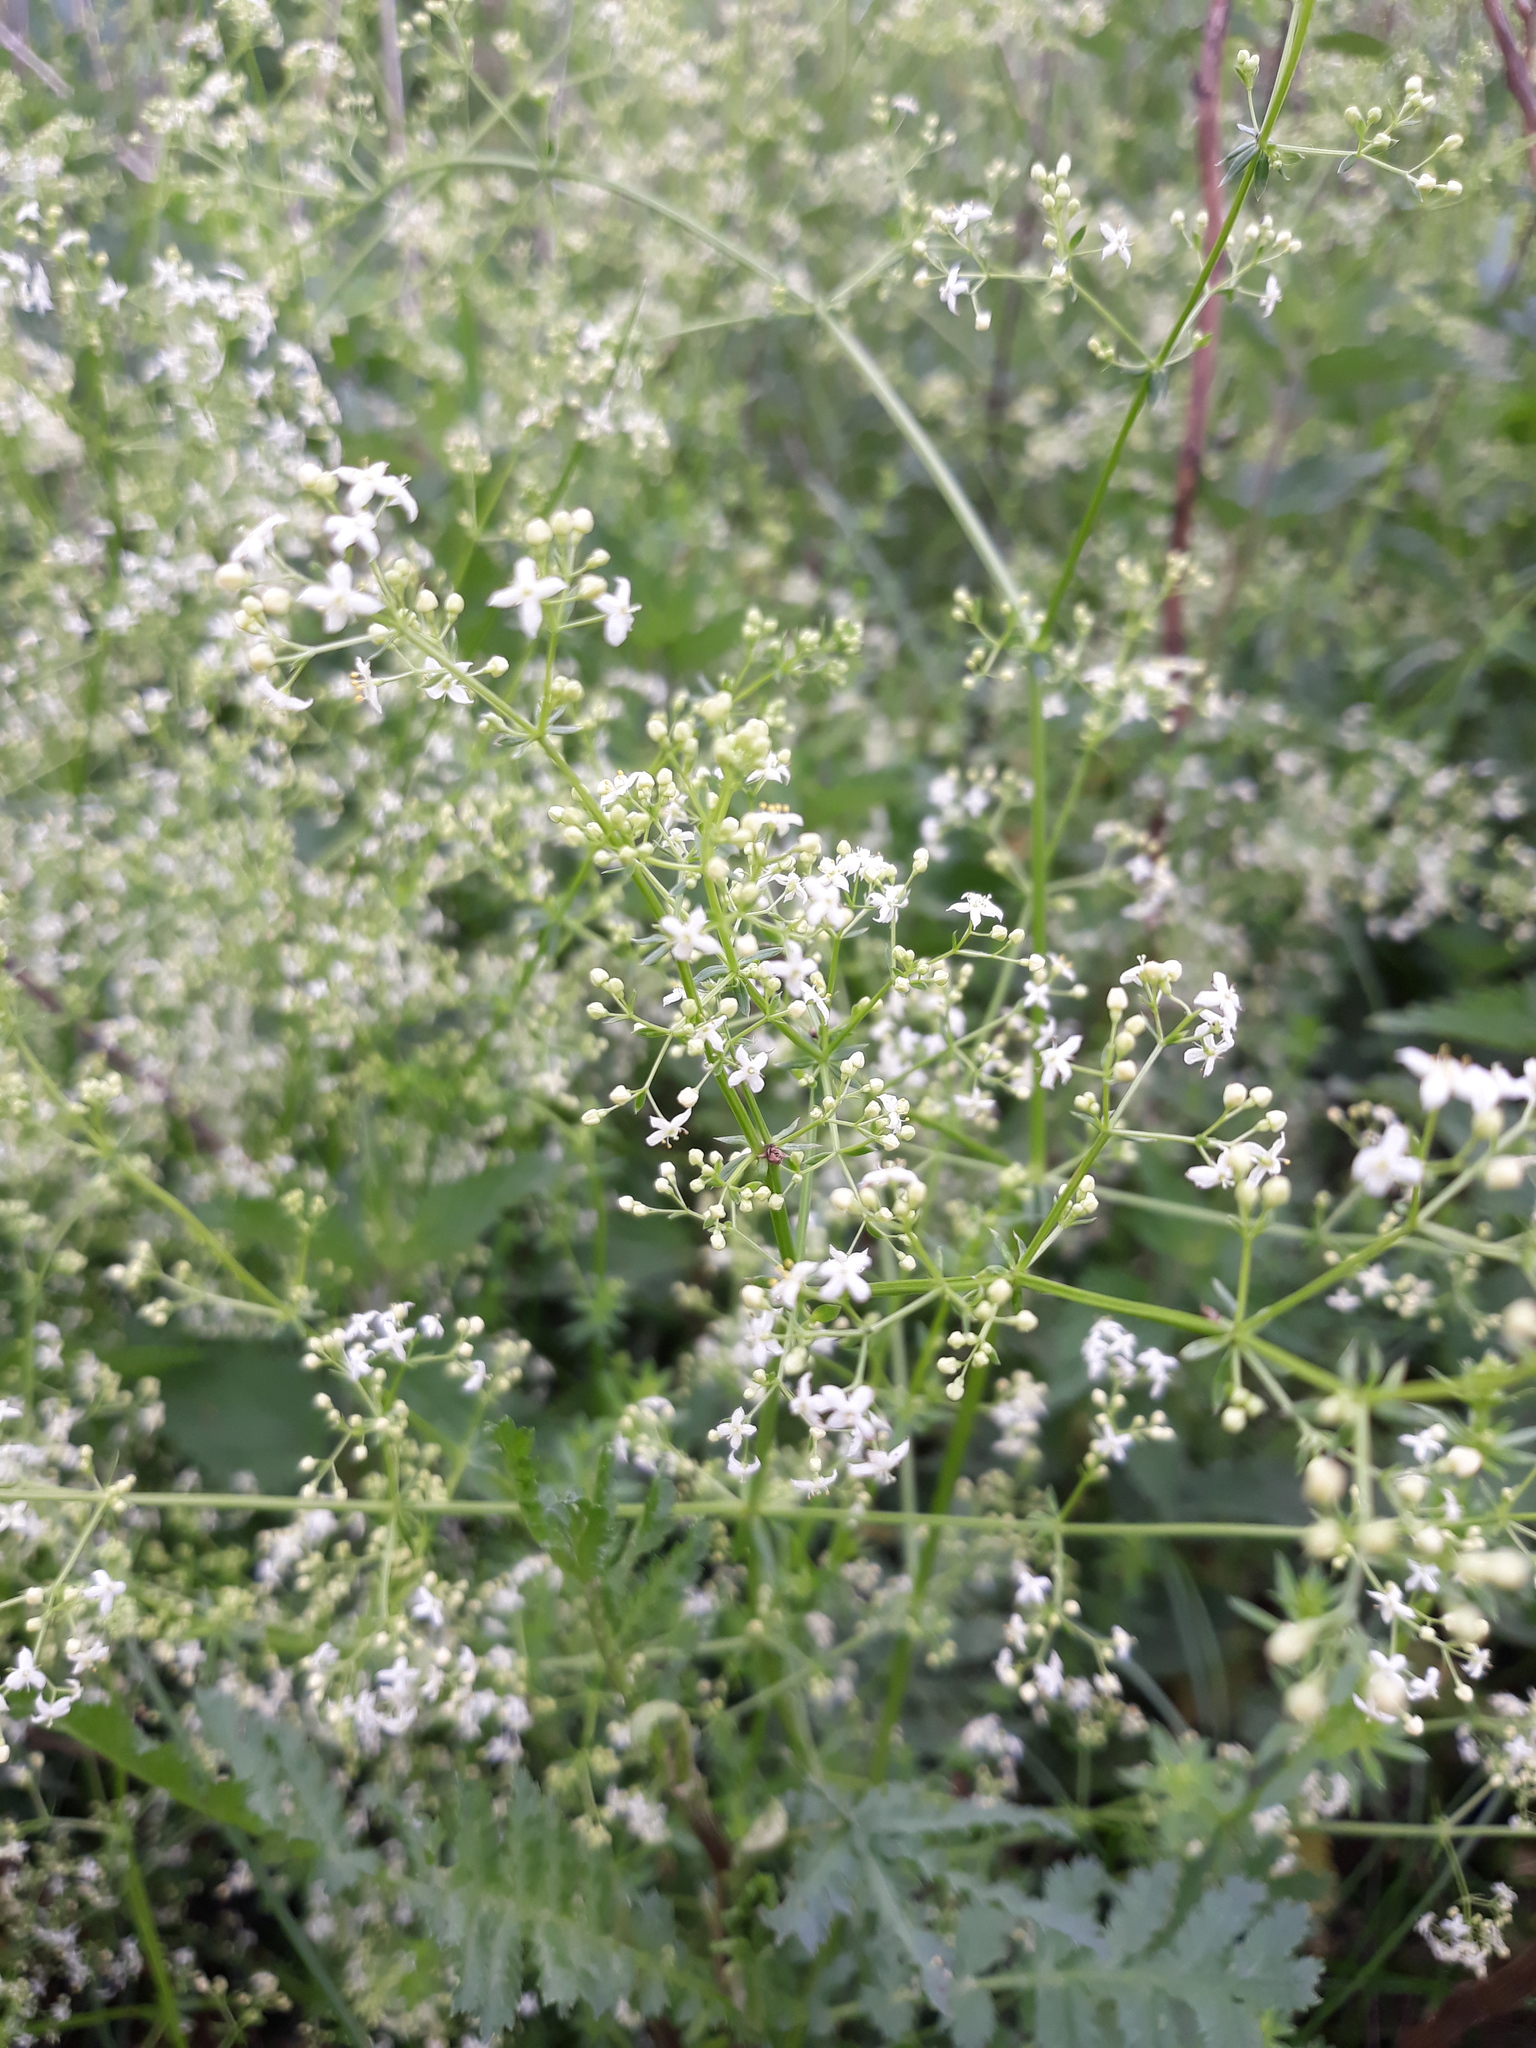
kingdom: Plantae
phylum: Tracheophyta
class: Magnoliopsida
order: Gentianales
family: Rubiaceae
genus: Galium
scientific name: Galium album
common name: White bedstraw
